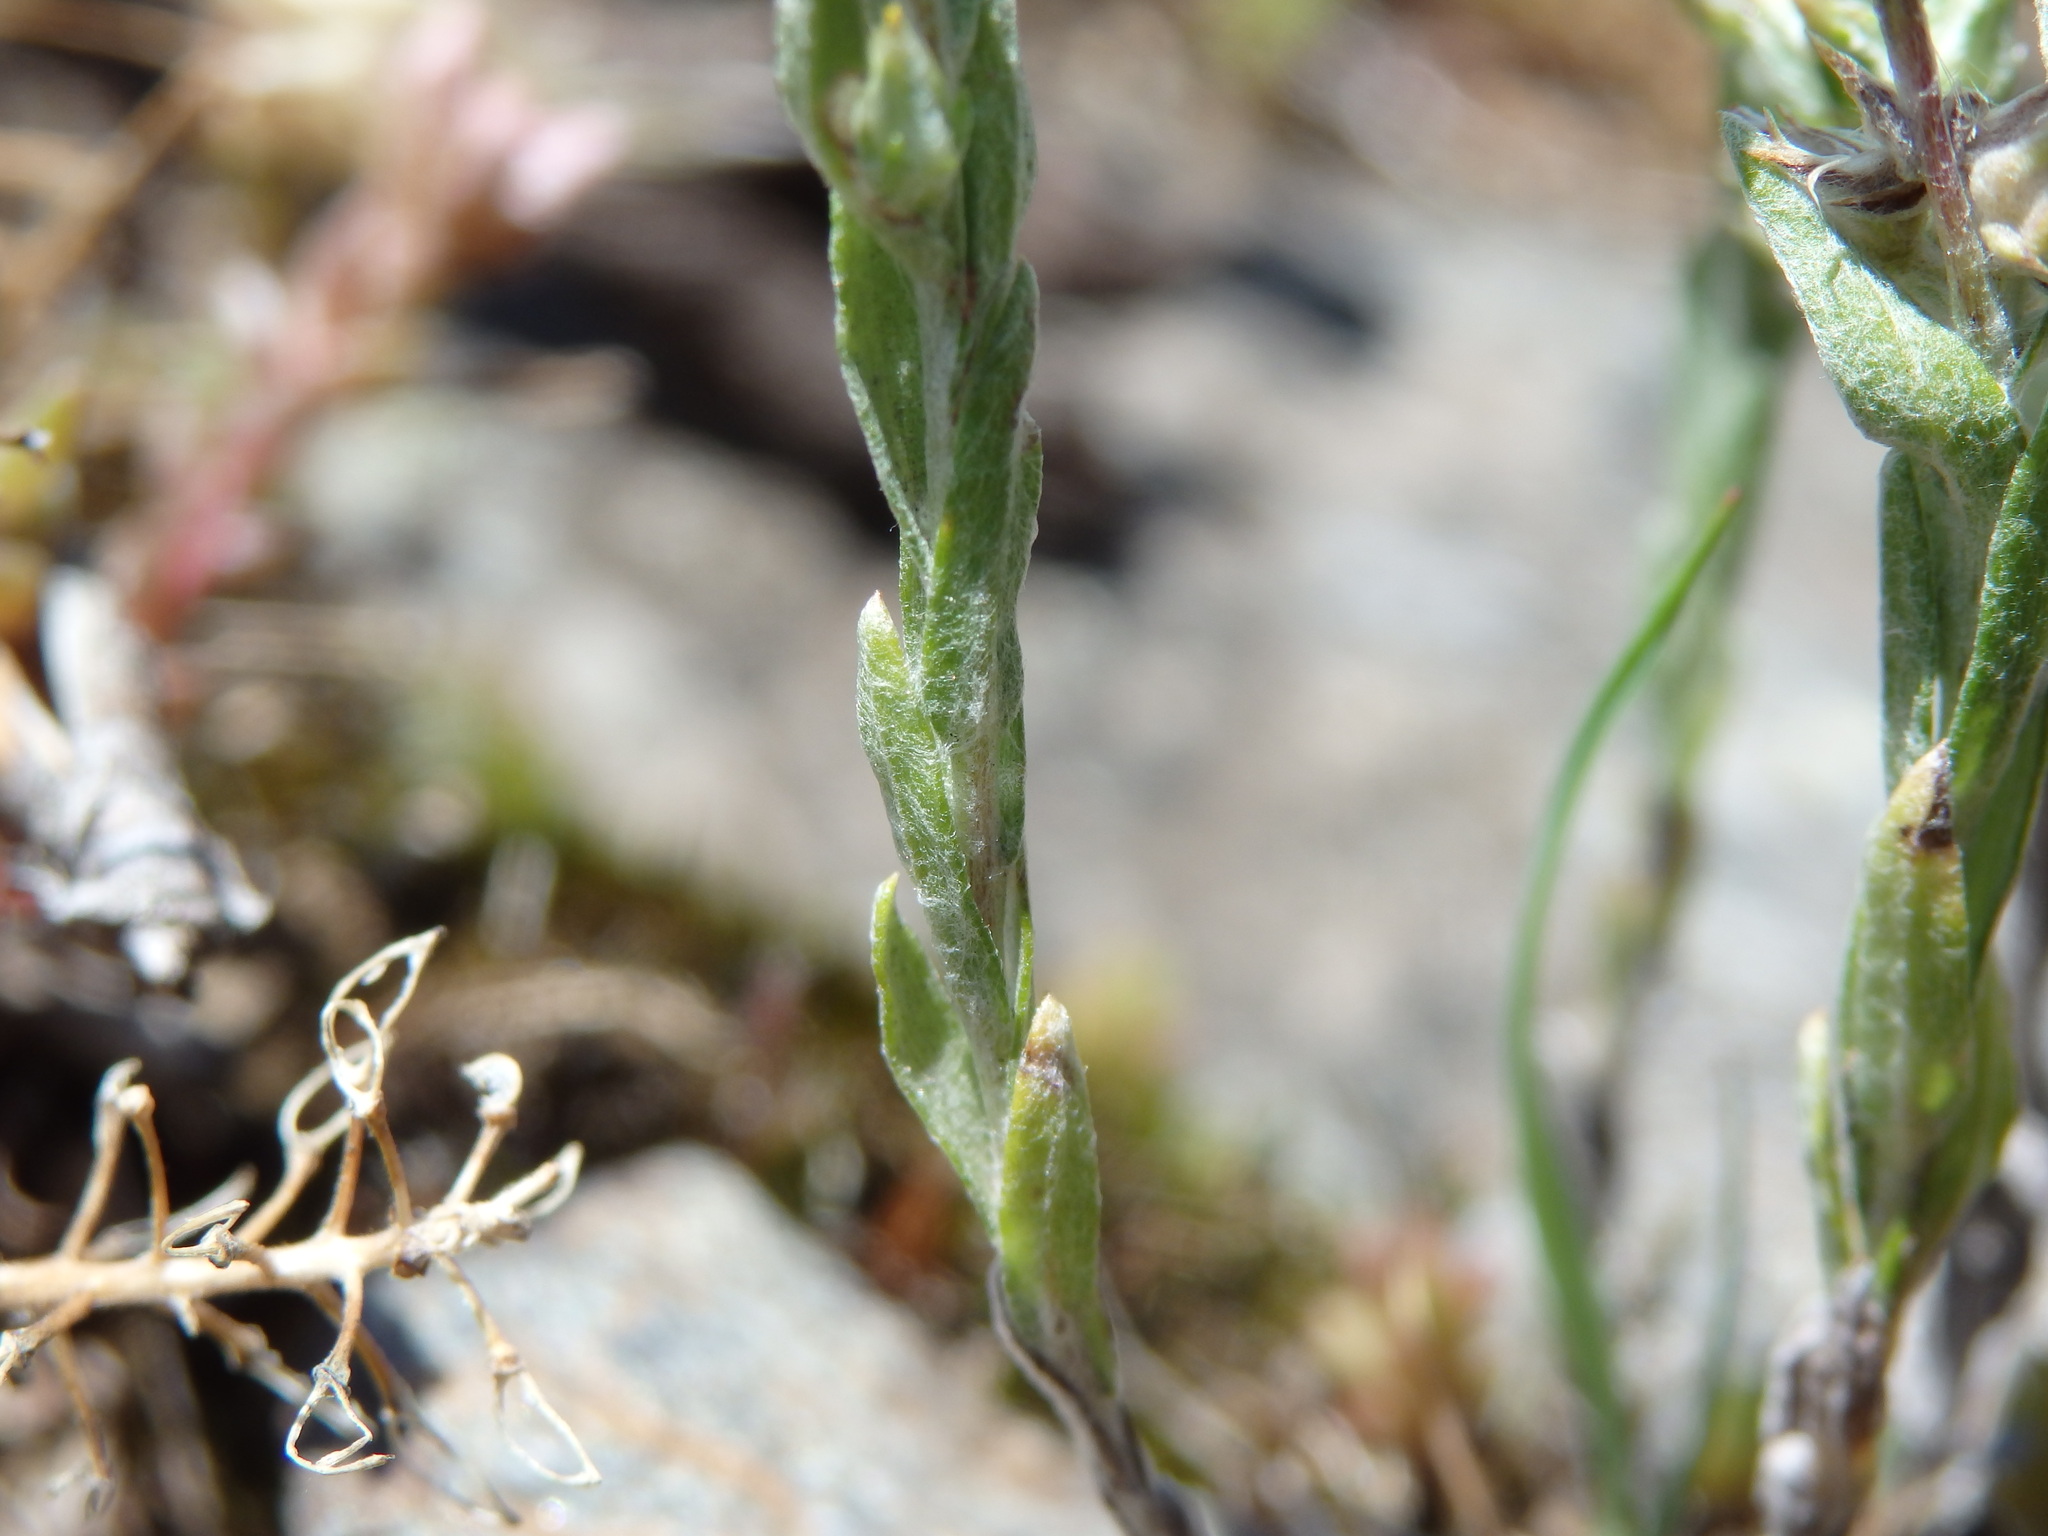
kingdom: Plantae
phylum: Tracheophyta
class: Magnoliopsida
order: Asterales
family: Asteraceae
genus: Logfia
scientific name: Logfia minima
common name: Little cottonrose
